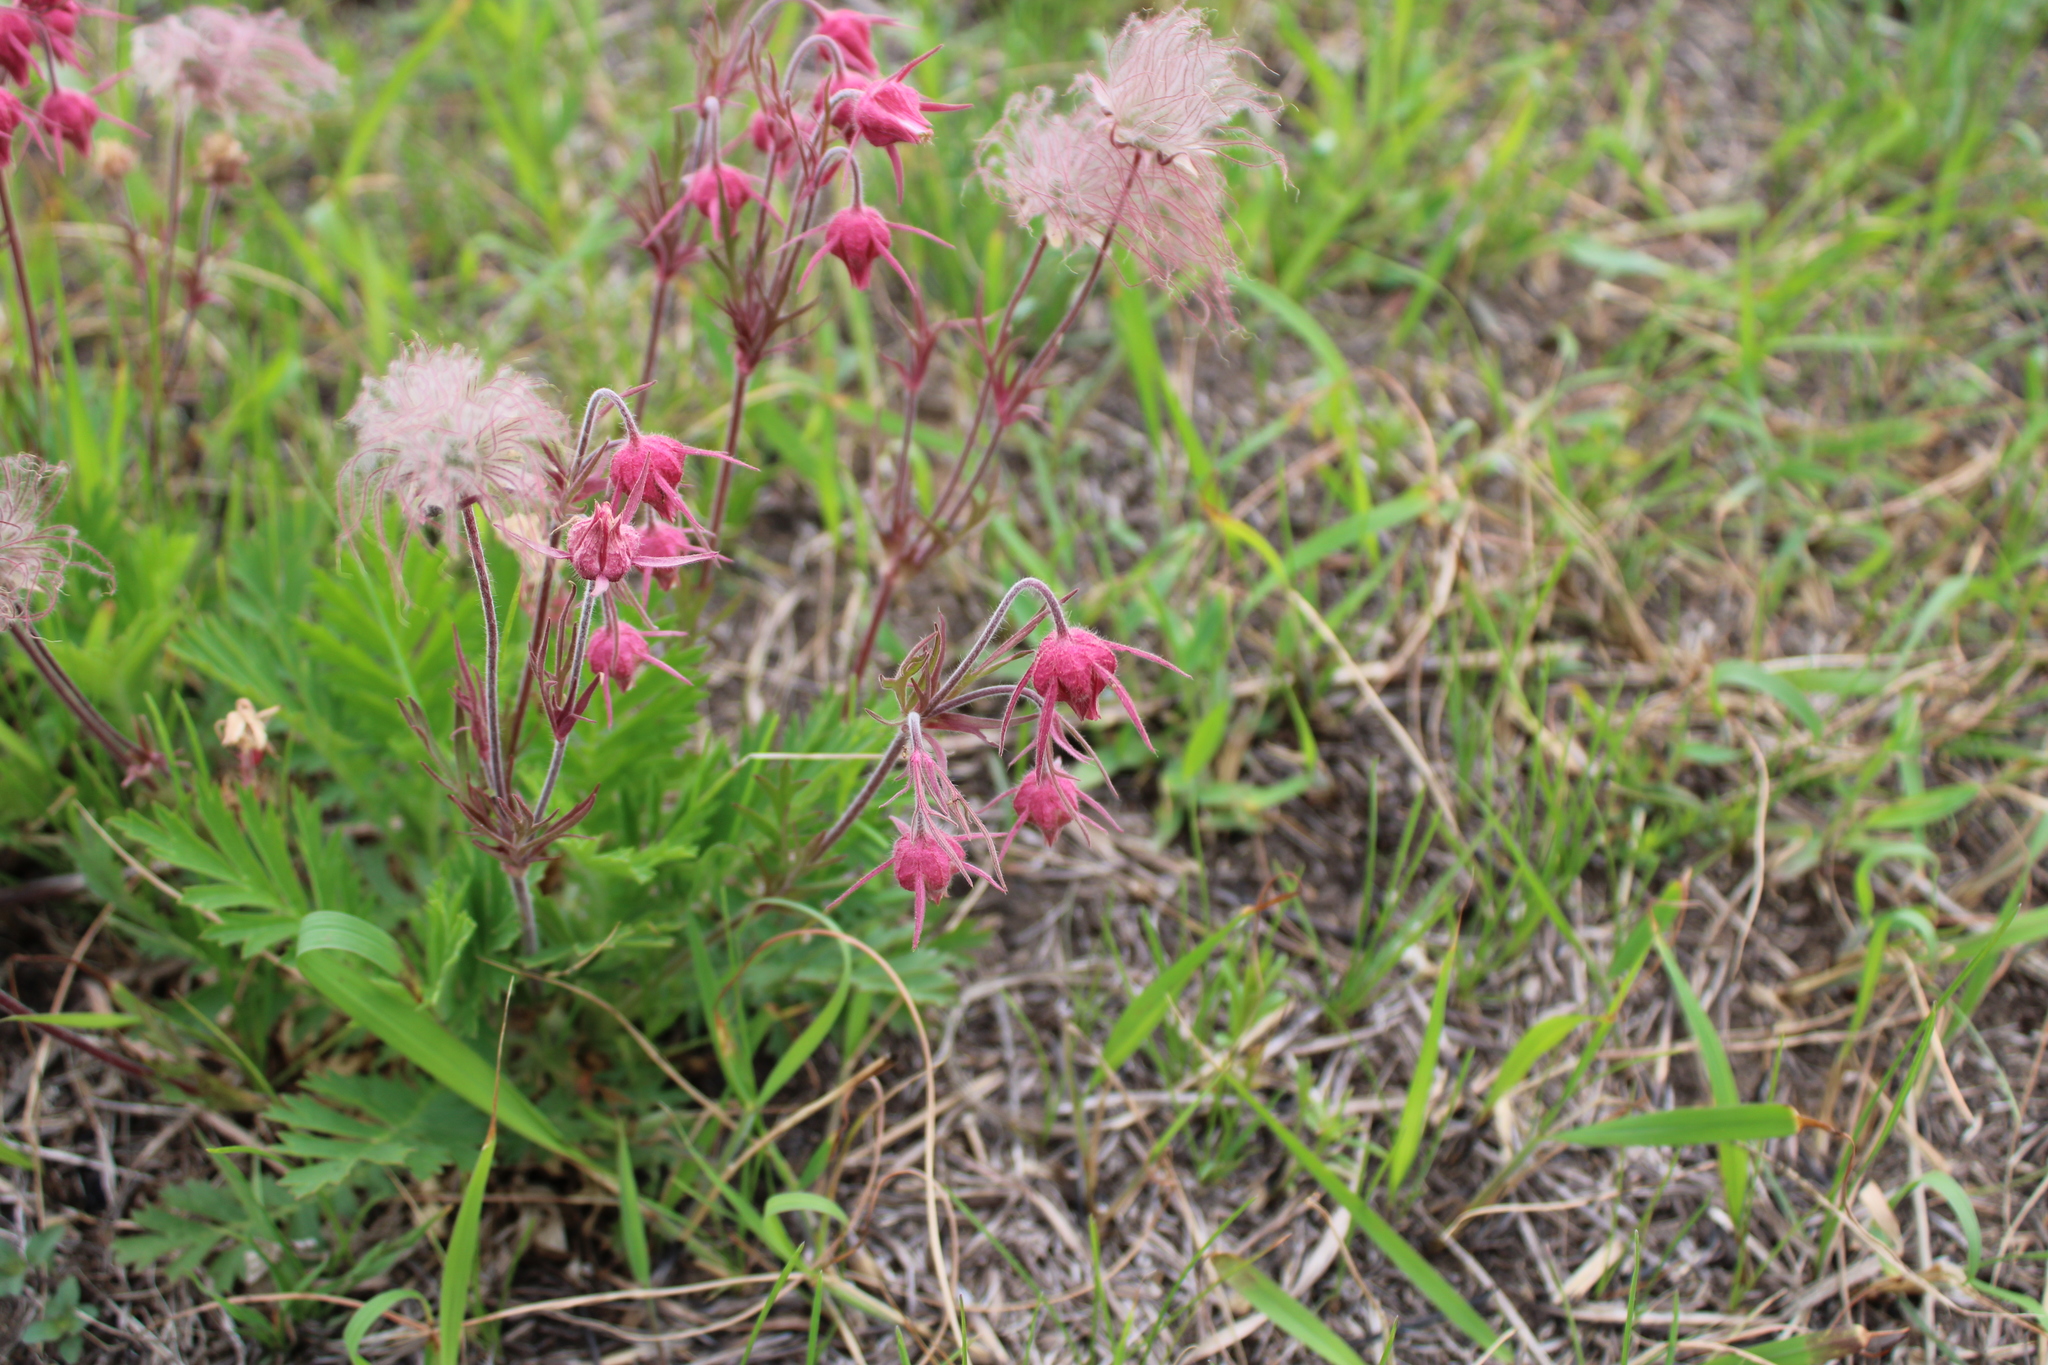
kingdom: Plantae
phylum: Tracheophyta
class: Magnoliopsida
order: Rosales
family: Rosaceae
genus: Geum
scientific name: Geum triflorum
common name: Old man's whiskers
